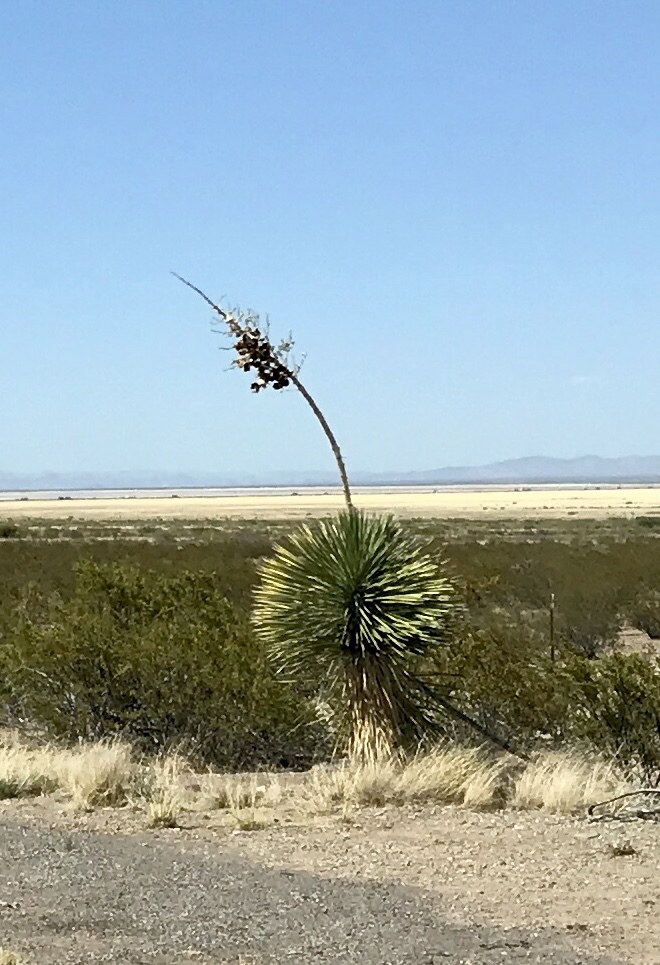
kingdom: Plantae
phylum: Tracheophyta
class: Liliopsida
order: Asparagales
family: Asparagaceae
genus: Yucca
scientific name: Yucca elata
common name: Palmella
